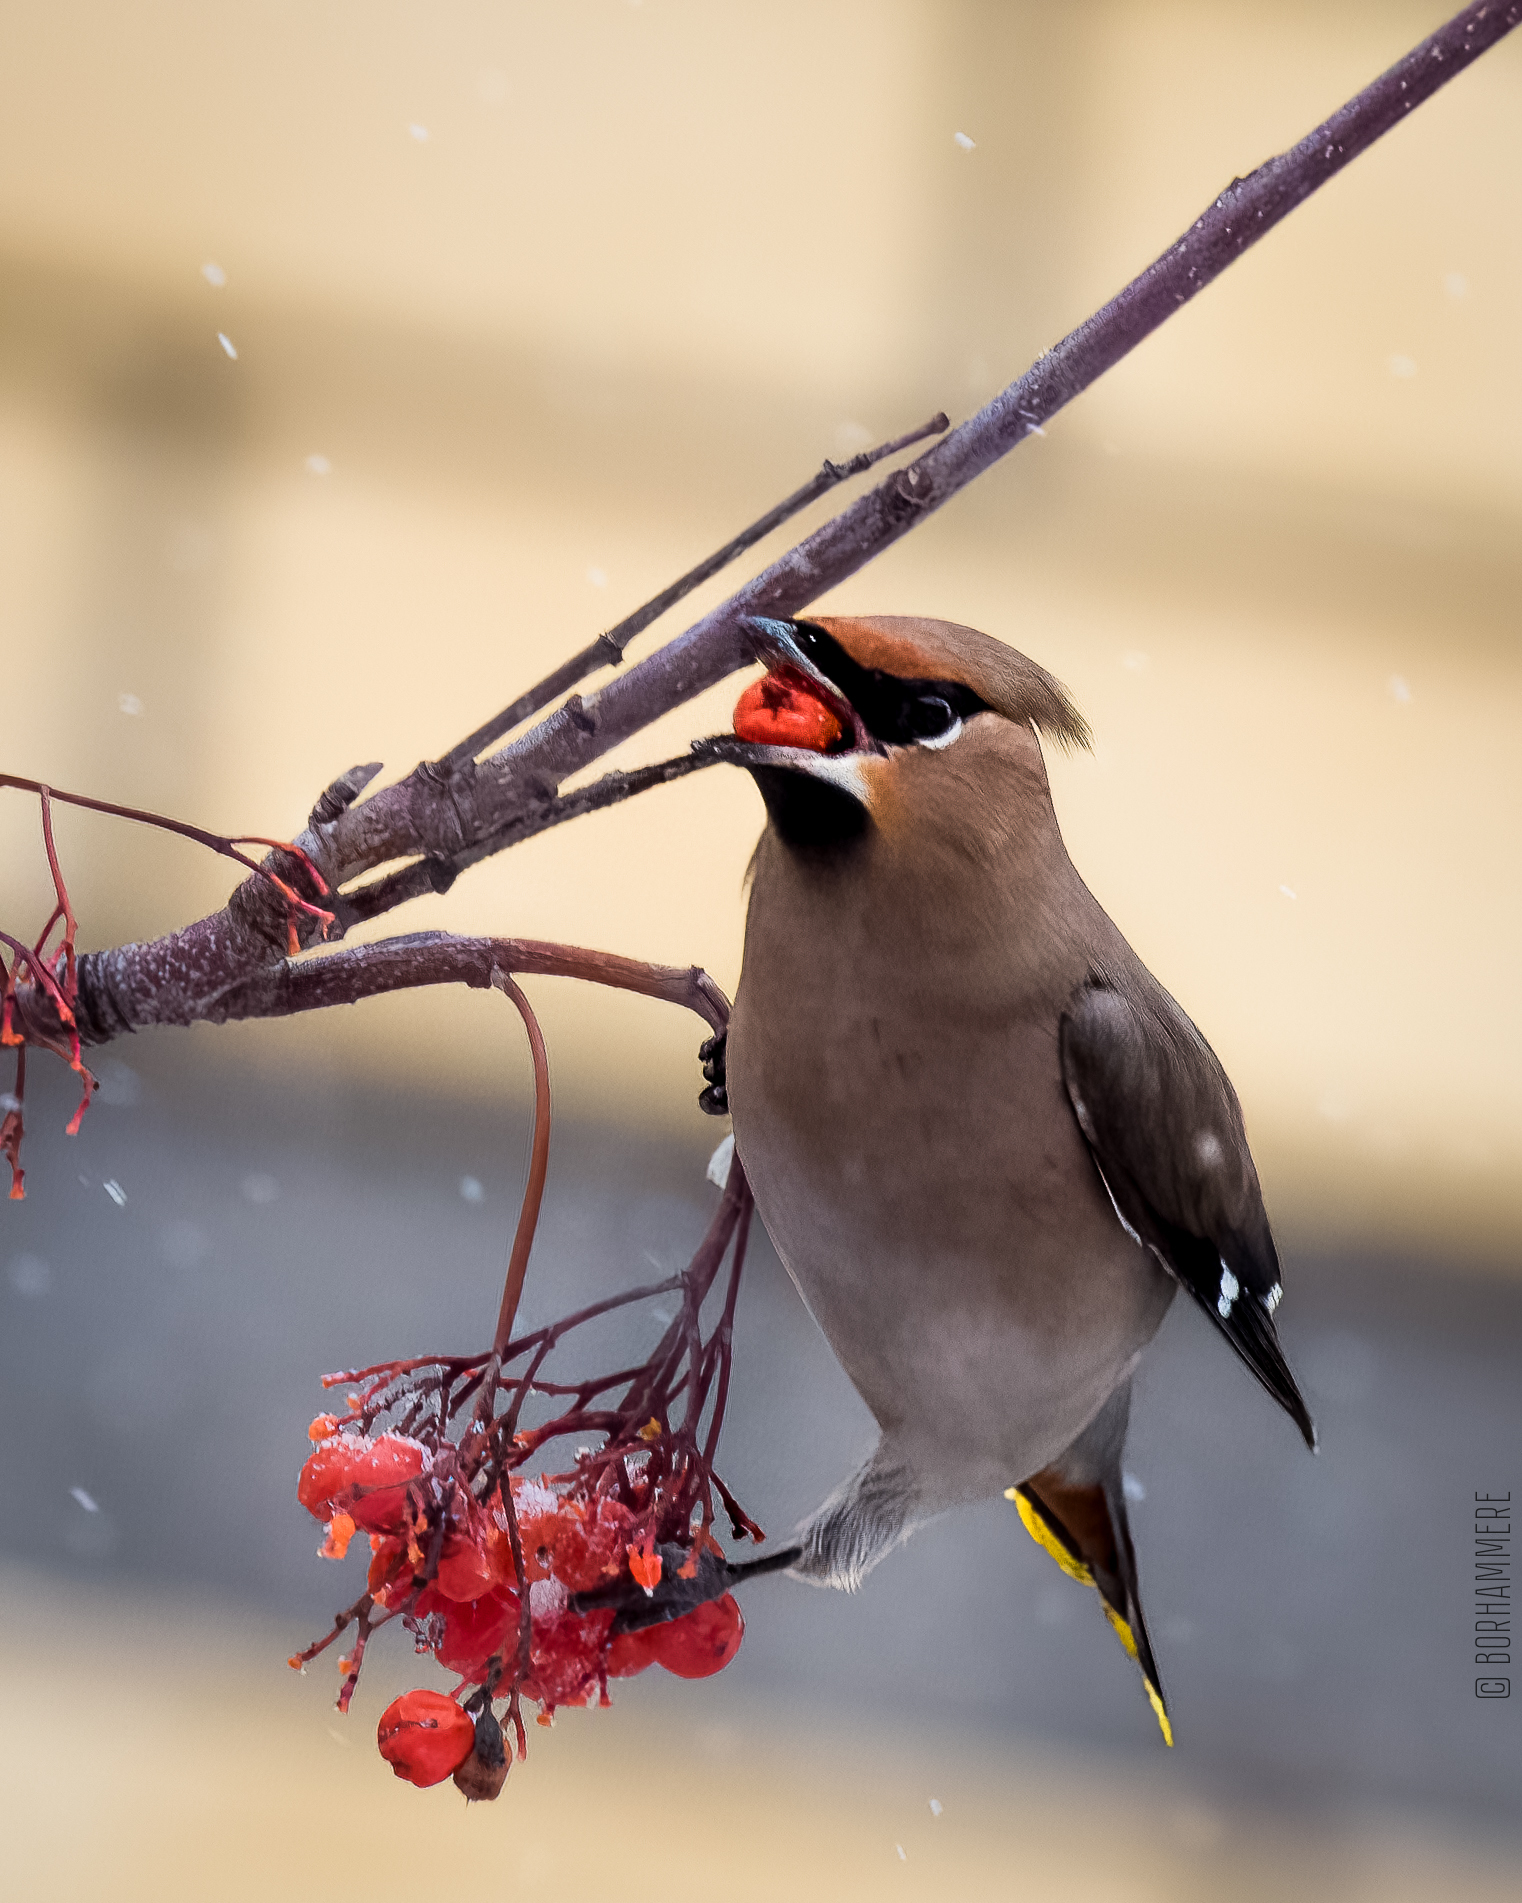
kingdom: Animalia
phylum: Chordata
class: Aves
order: Passeriformes
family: Bombycillidae
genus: Bombycilla
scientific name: Bombycilla garrulus
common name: Bohemian waxwing
